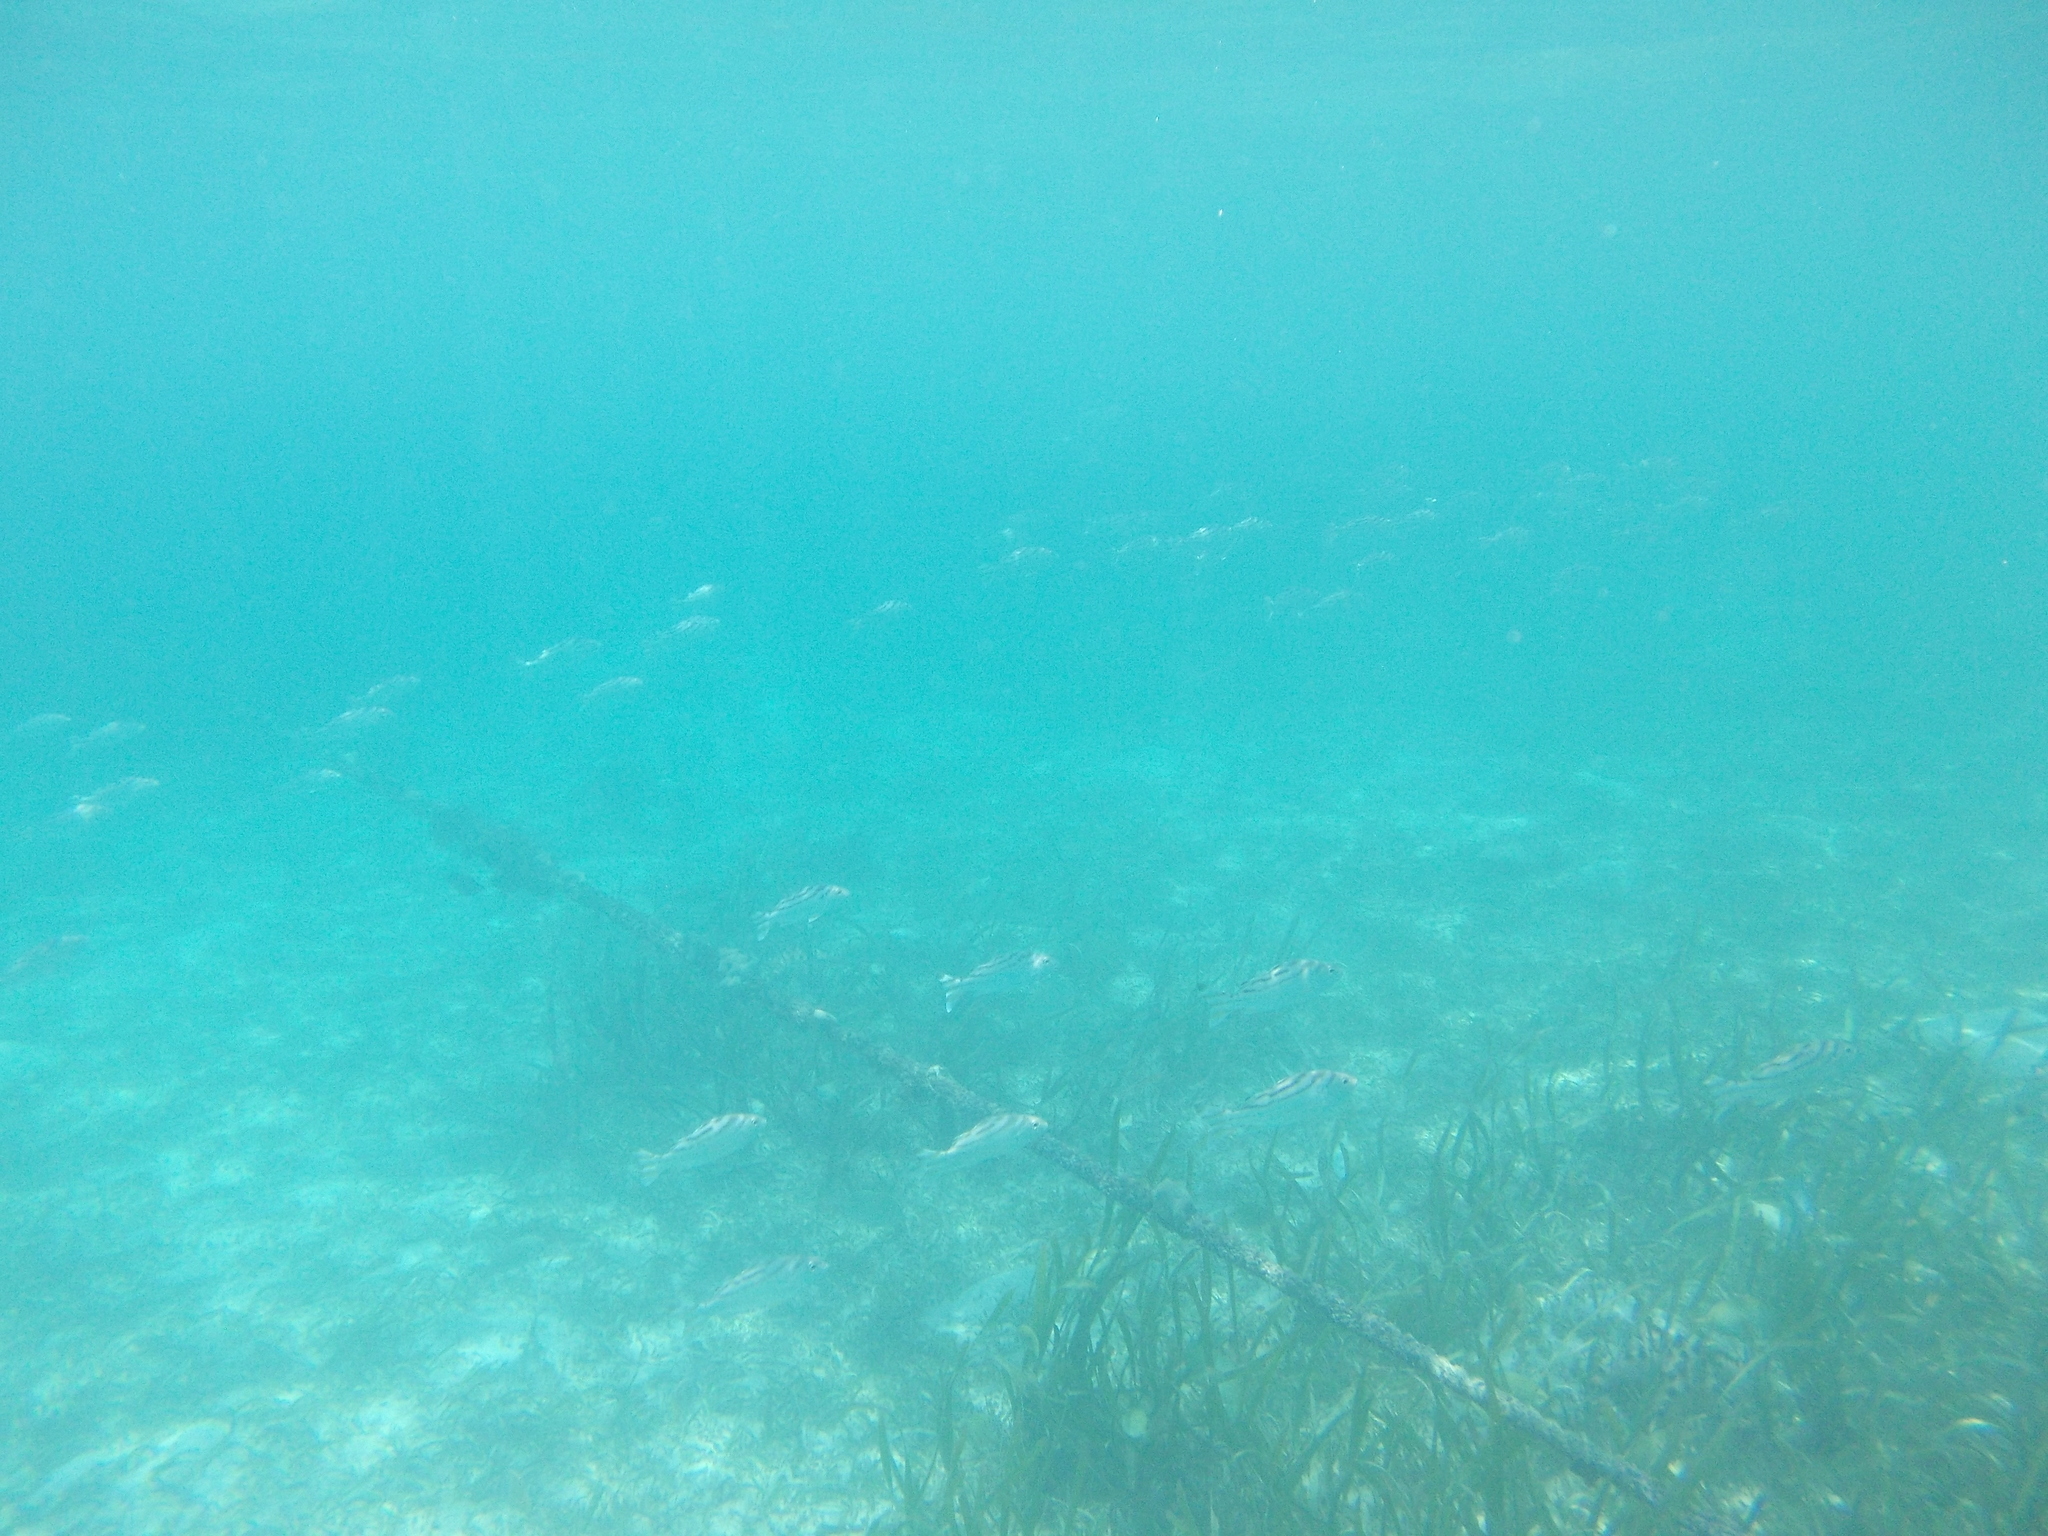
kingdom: Animalia
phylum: Chordata
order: Perciformes
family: Terapontidae
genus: Terapon
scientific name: Terapon jarbua
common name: Jarbua terapon
